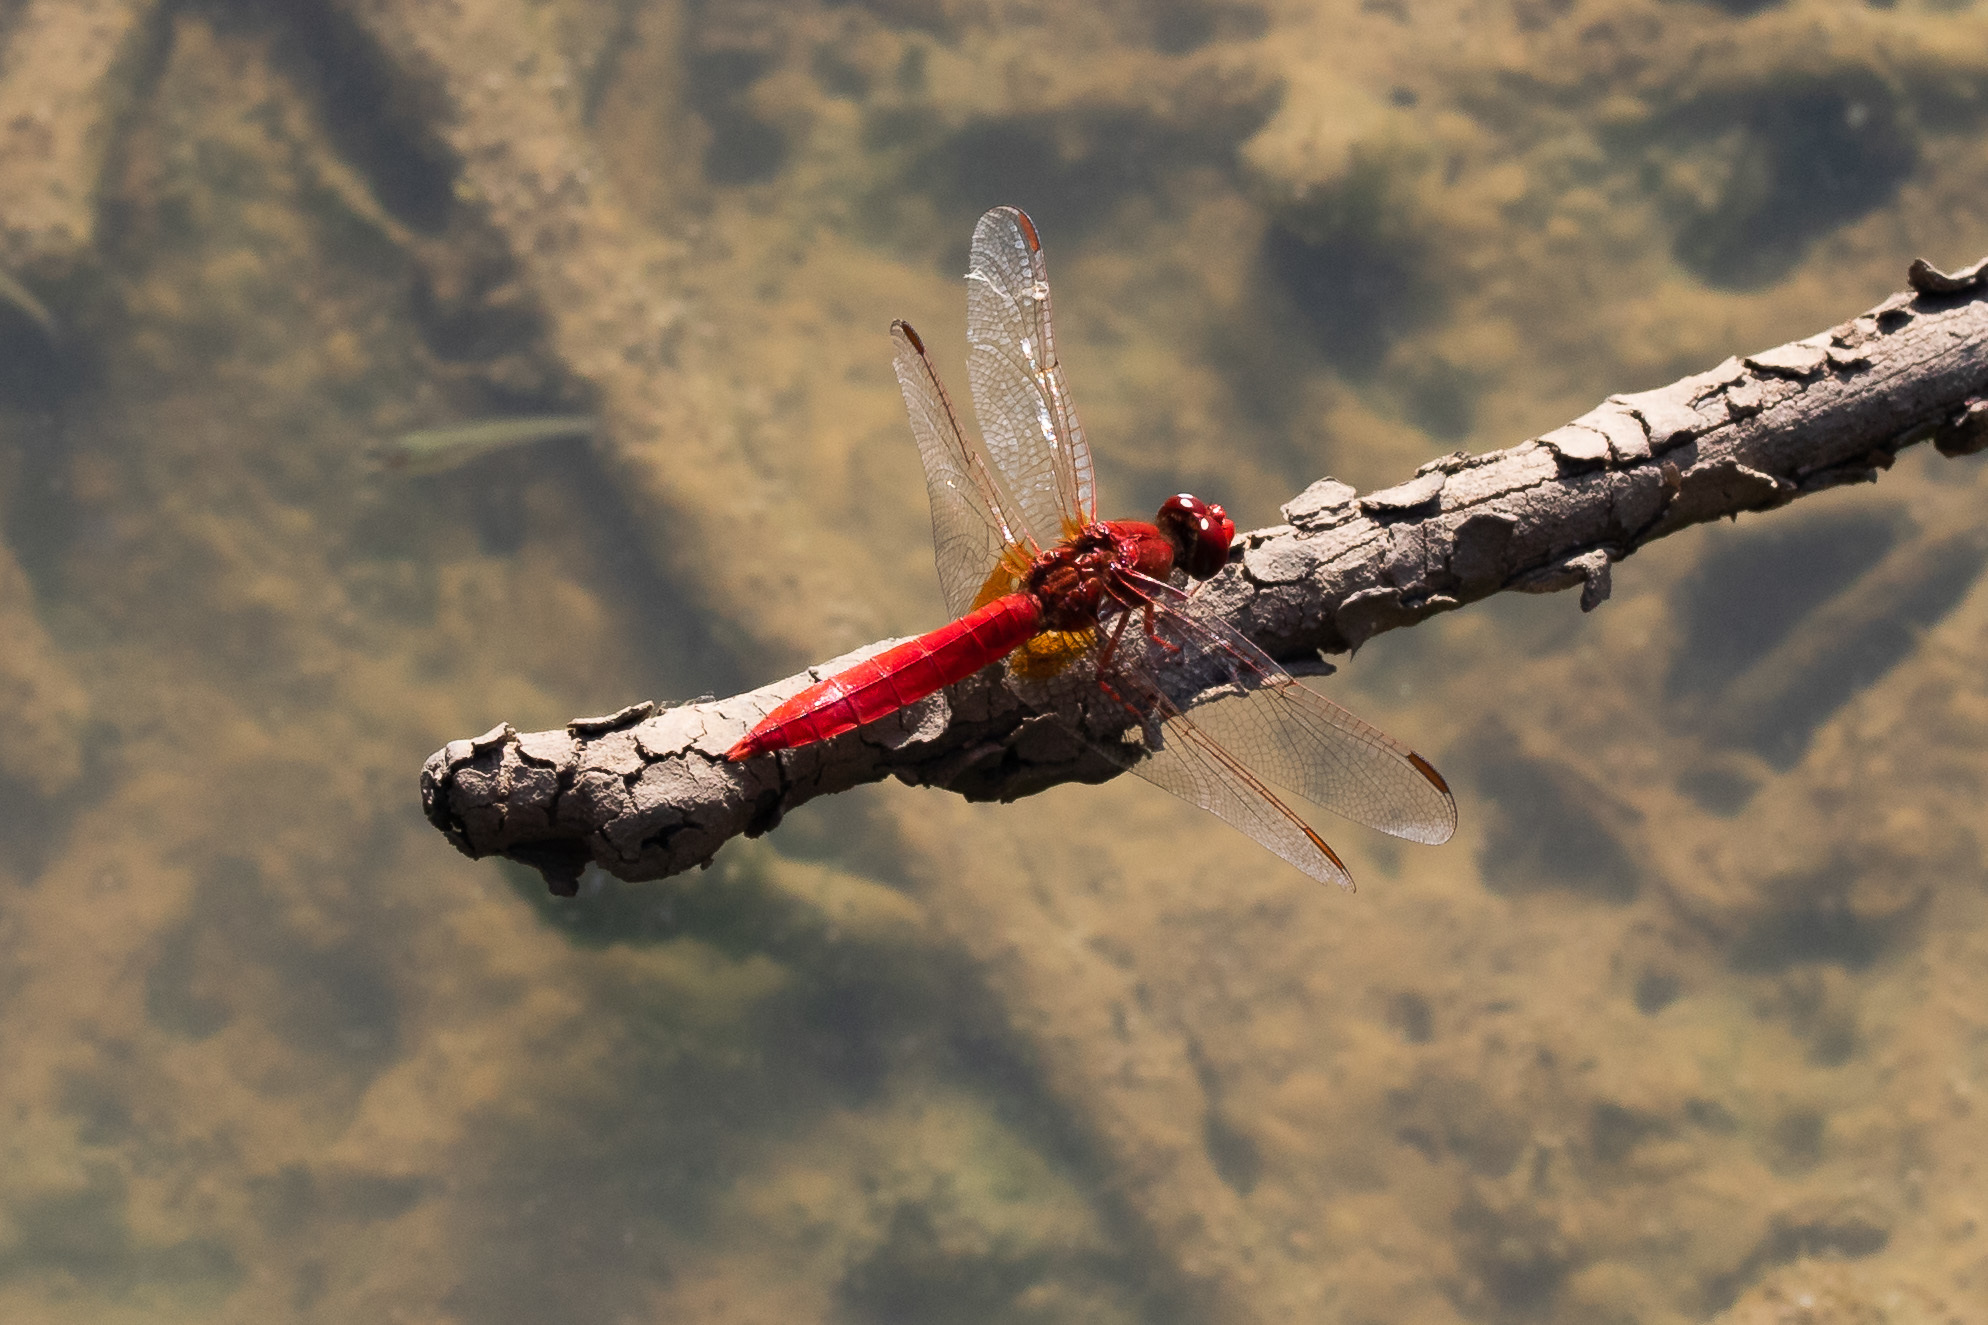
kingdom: Animalia
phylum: Arthropoda
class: Insecta
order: Odonata
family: Libellulidae
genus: Crocothemis
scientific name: Crocothemis erythraea
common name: Scarlet dragonfly
